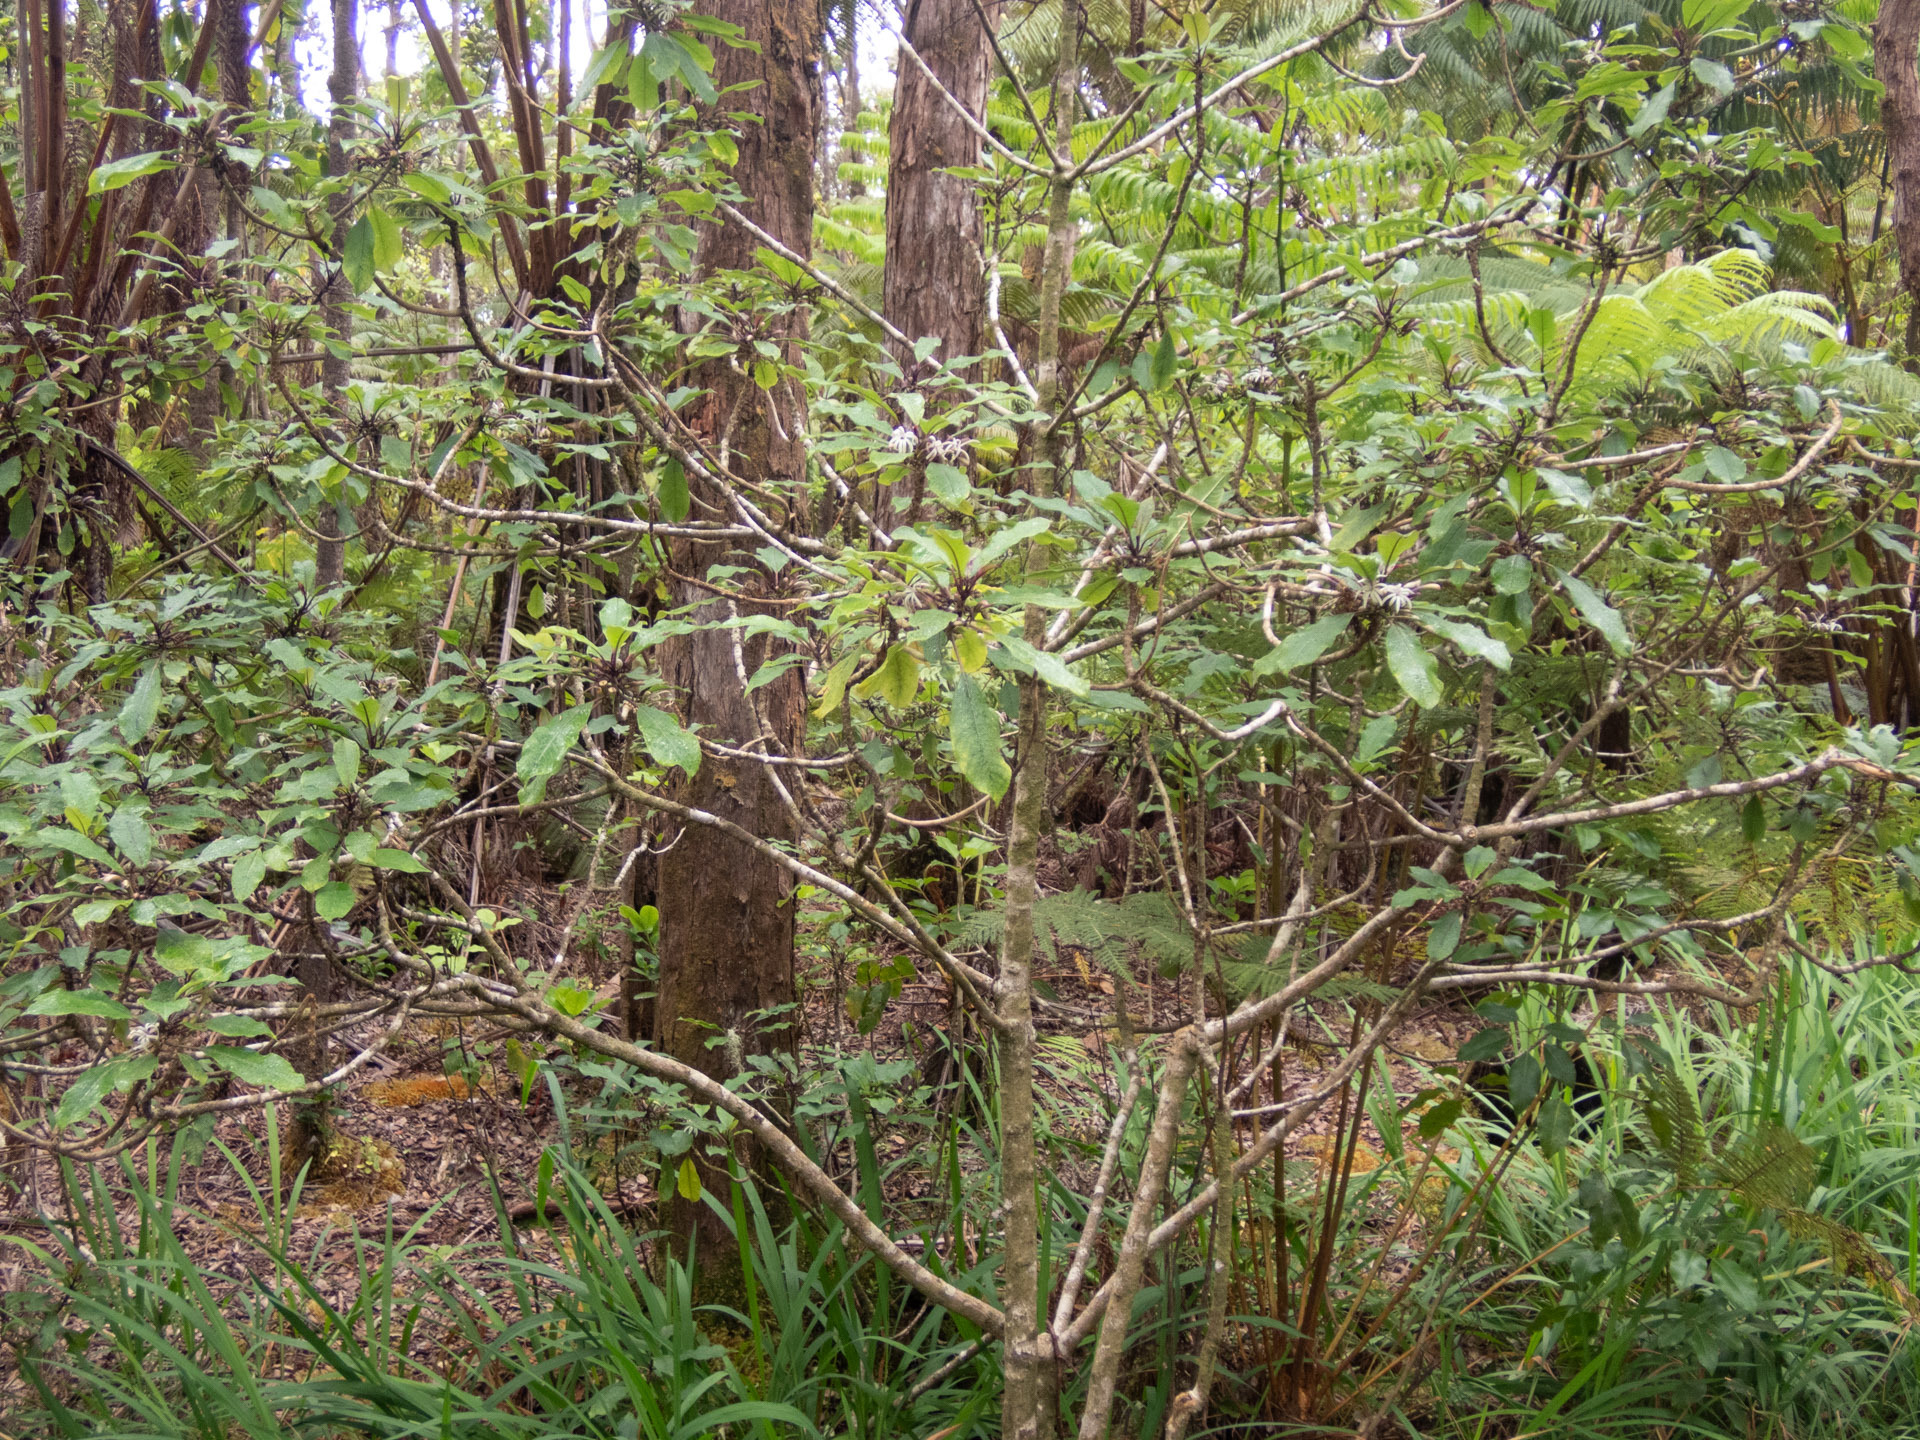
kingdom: Plantae
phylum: Tracheophyta
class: Magnoliopsida
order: Asterales
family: Campanulaceae
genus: Clermontia
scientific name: Clermontia parviflora
